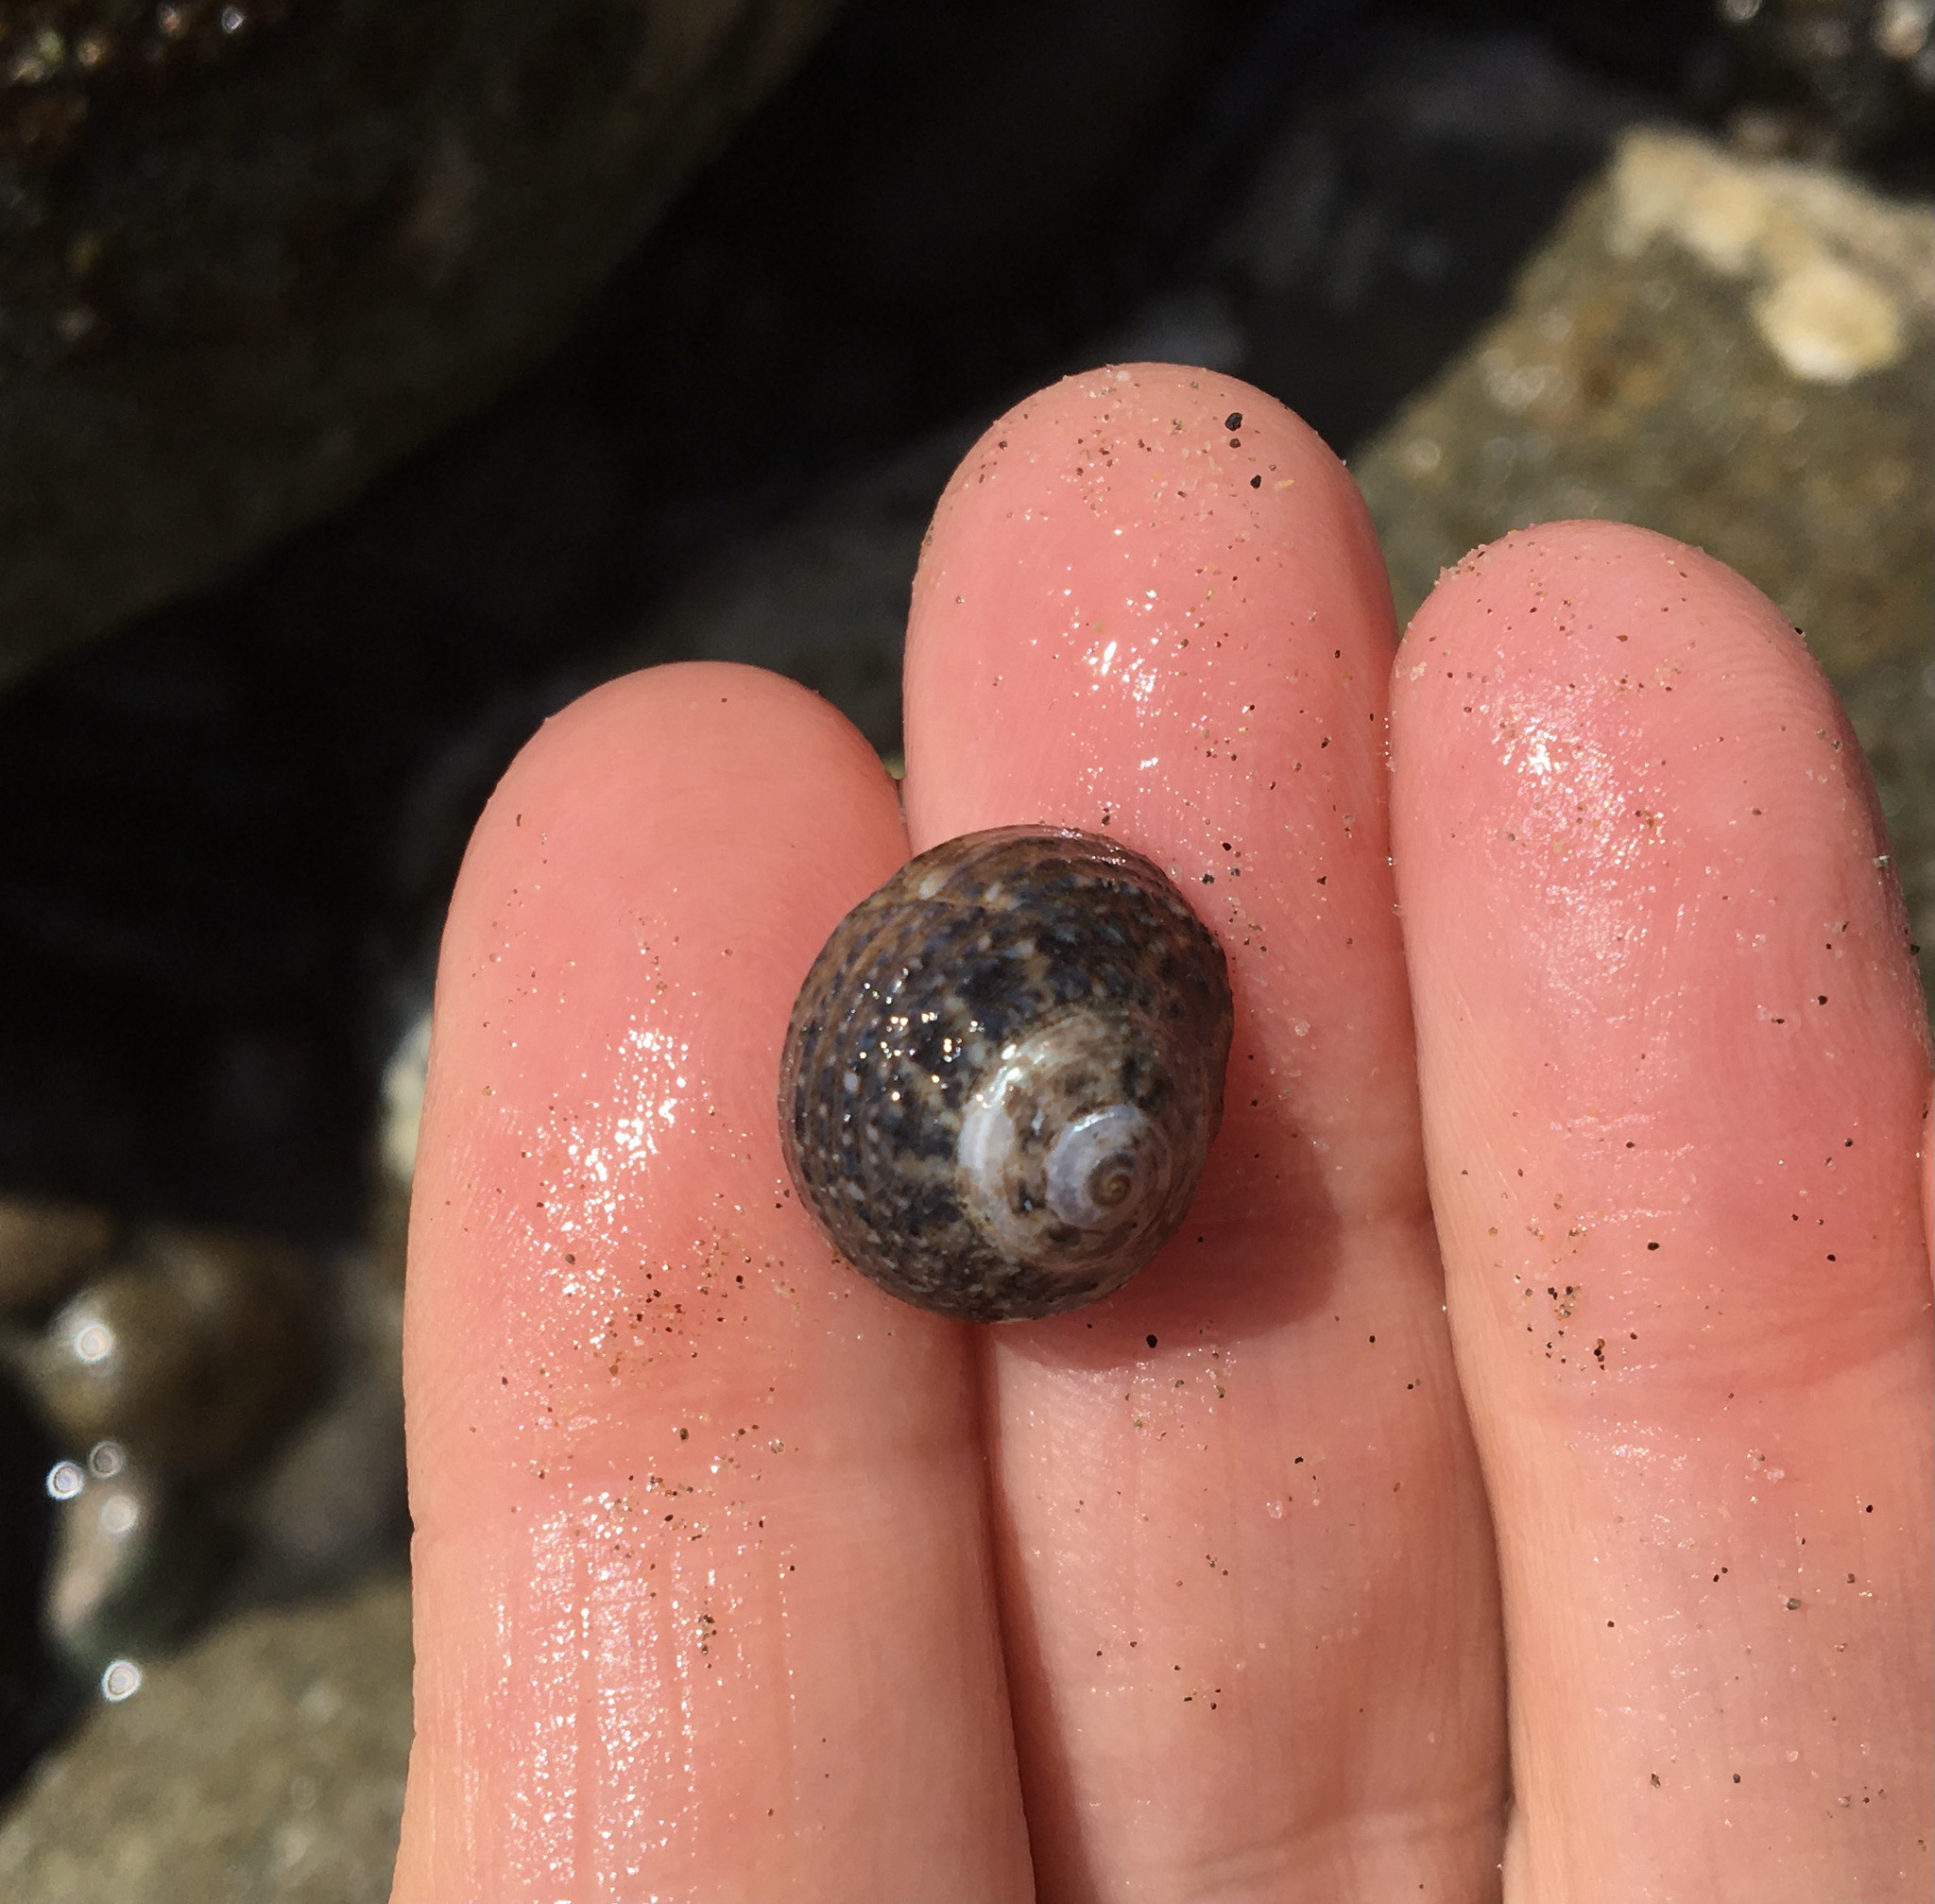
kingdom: Animalia
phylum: Mollusca
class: Gastropoda
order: Trochida
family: Tegulidae
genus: Tegula
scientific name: Tegula eiseni
